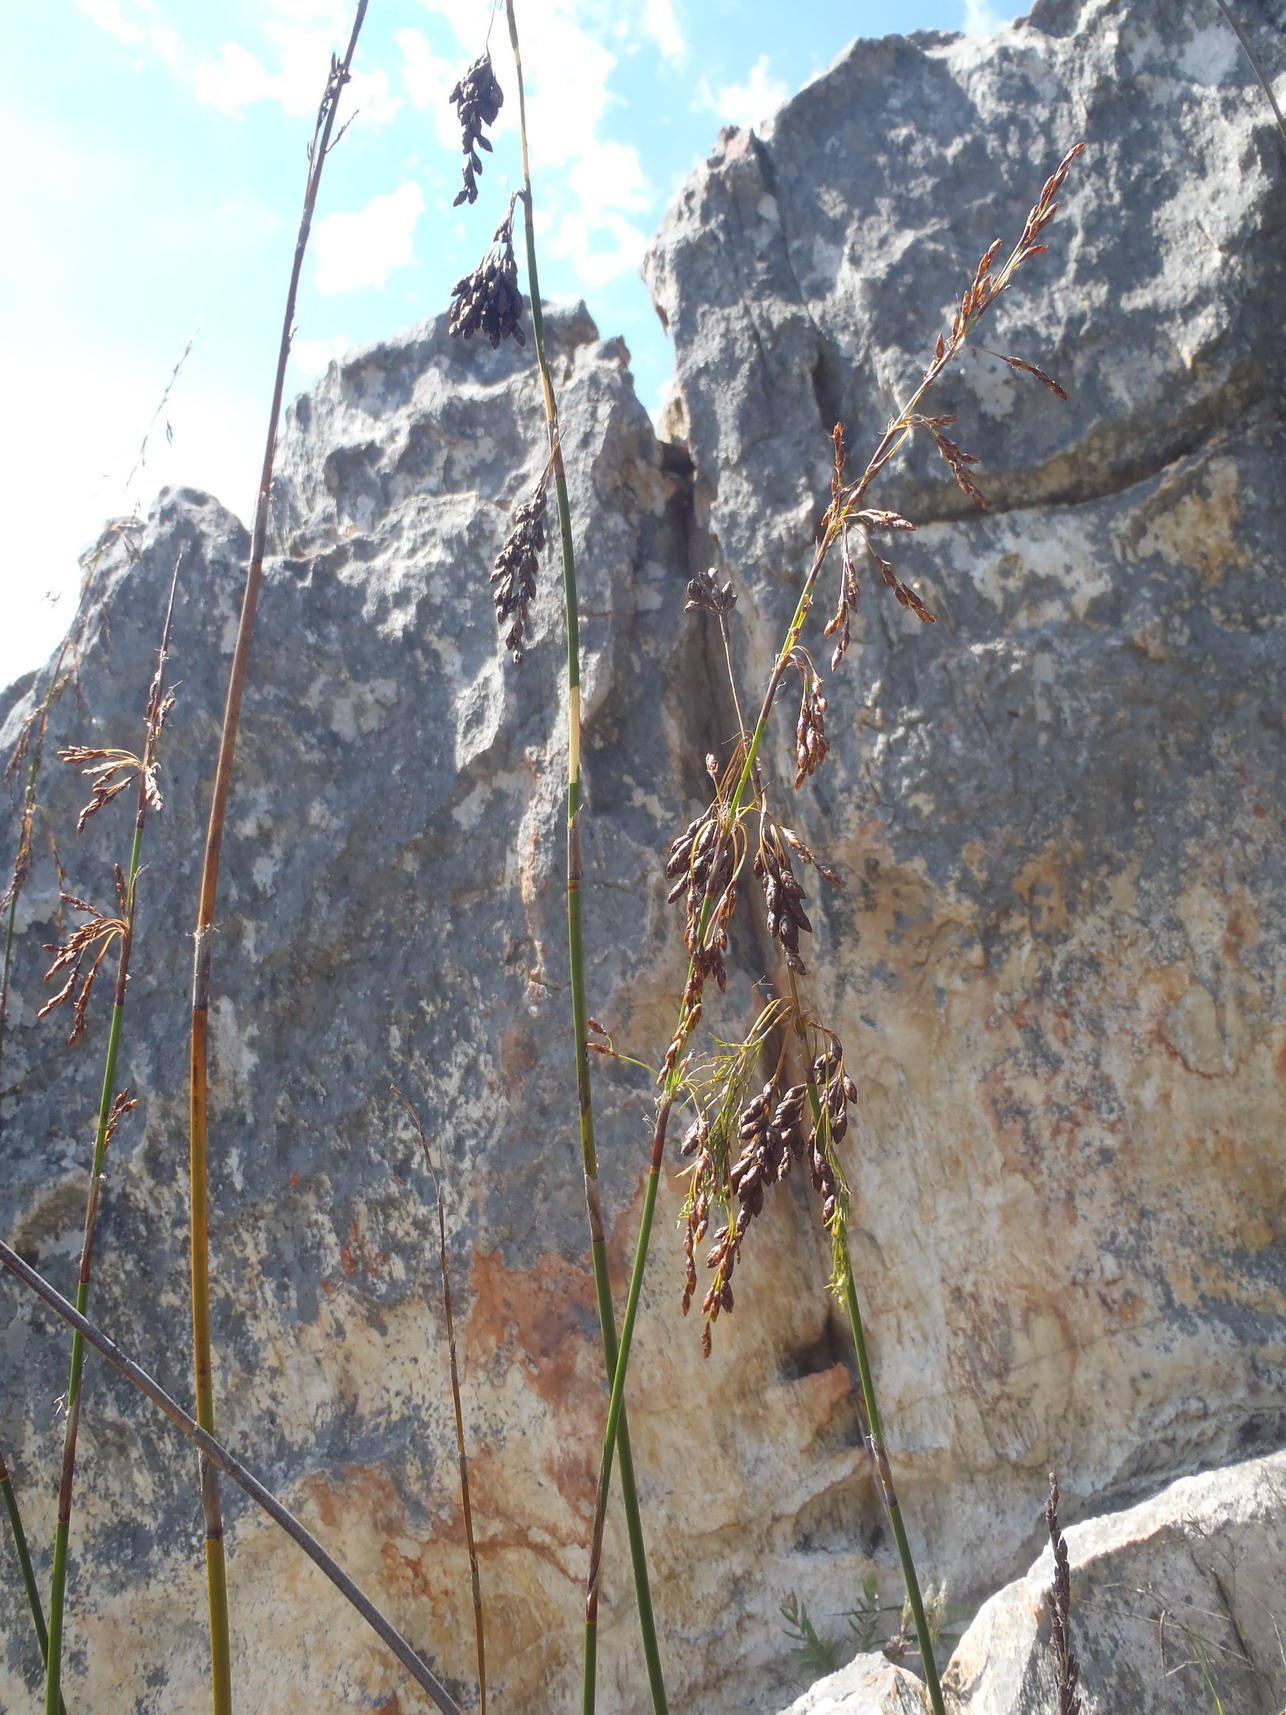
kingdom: Plantae
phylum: Tracheophyta
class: Liliopsida
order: Poales
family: Restionaceae
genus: Rhodocoma
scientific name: Rhodocoma gigantea
